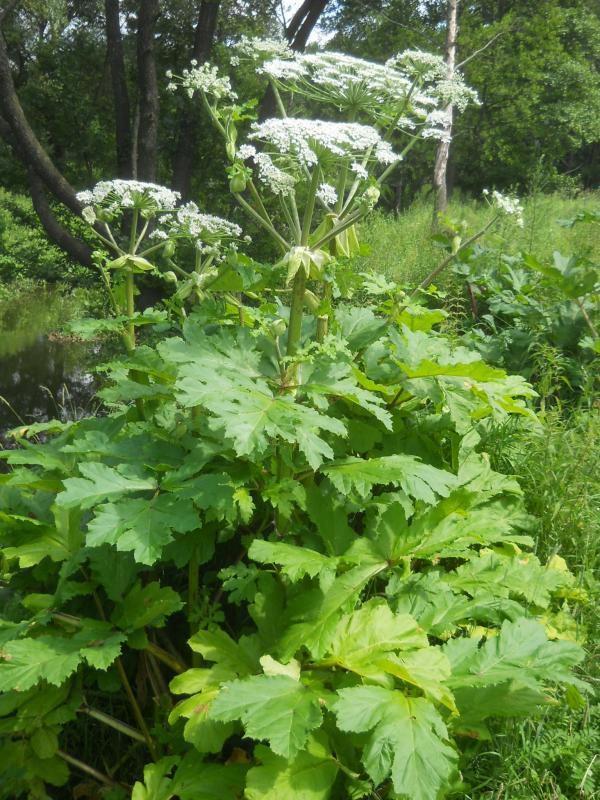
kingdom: Plantae
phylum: Tracheophyta
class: Magnoliopsida
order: Apiales
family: Apiaceae
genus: Heracleum
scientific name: Heracleum sosnowskyi
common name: Sosnowsky's hogweed
